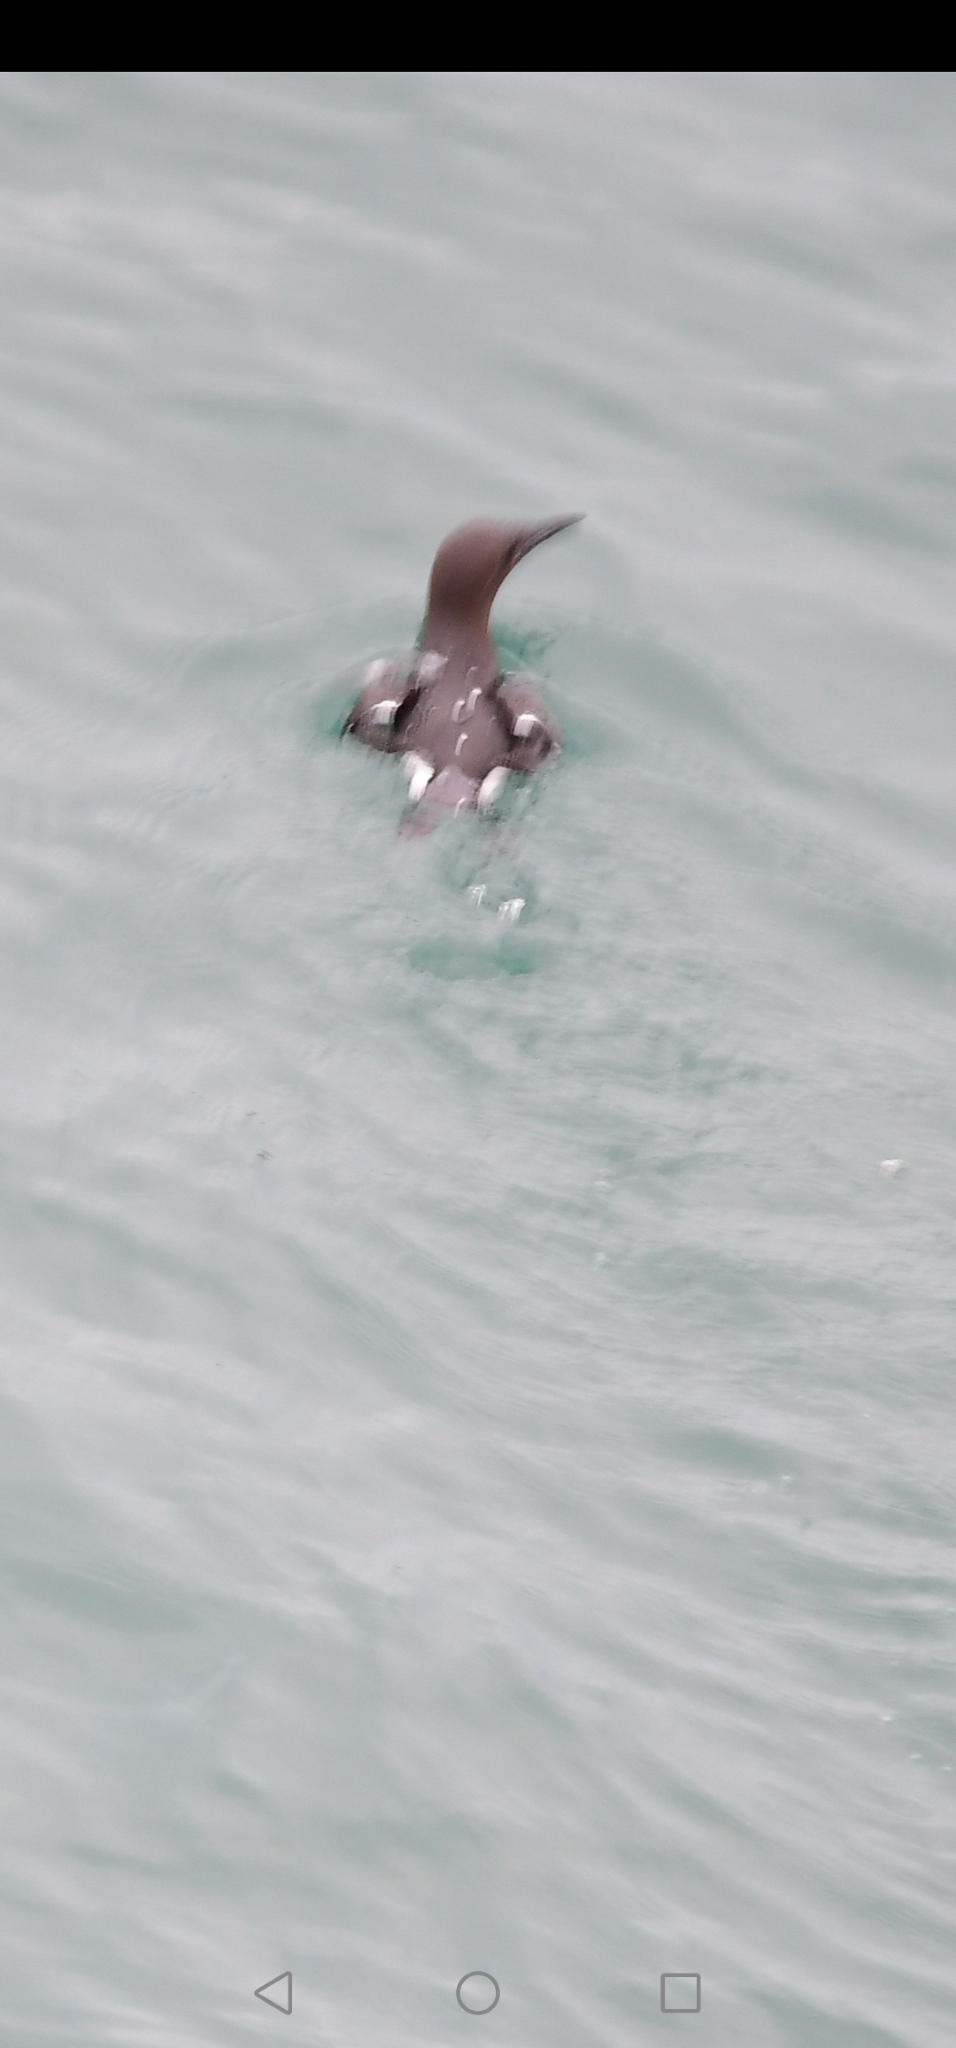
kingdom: Animalia
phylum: Chordata
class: Aves
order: Charadriiformes
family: Alcidae
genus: Uria
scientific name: Uria aalge
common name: Common murre
